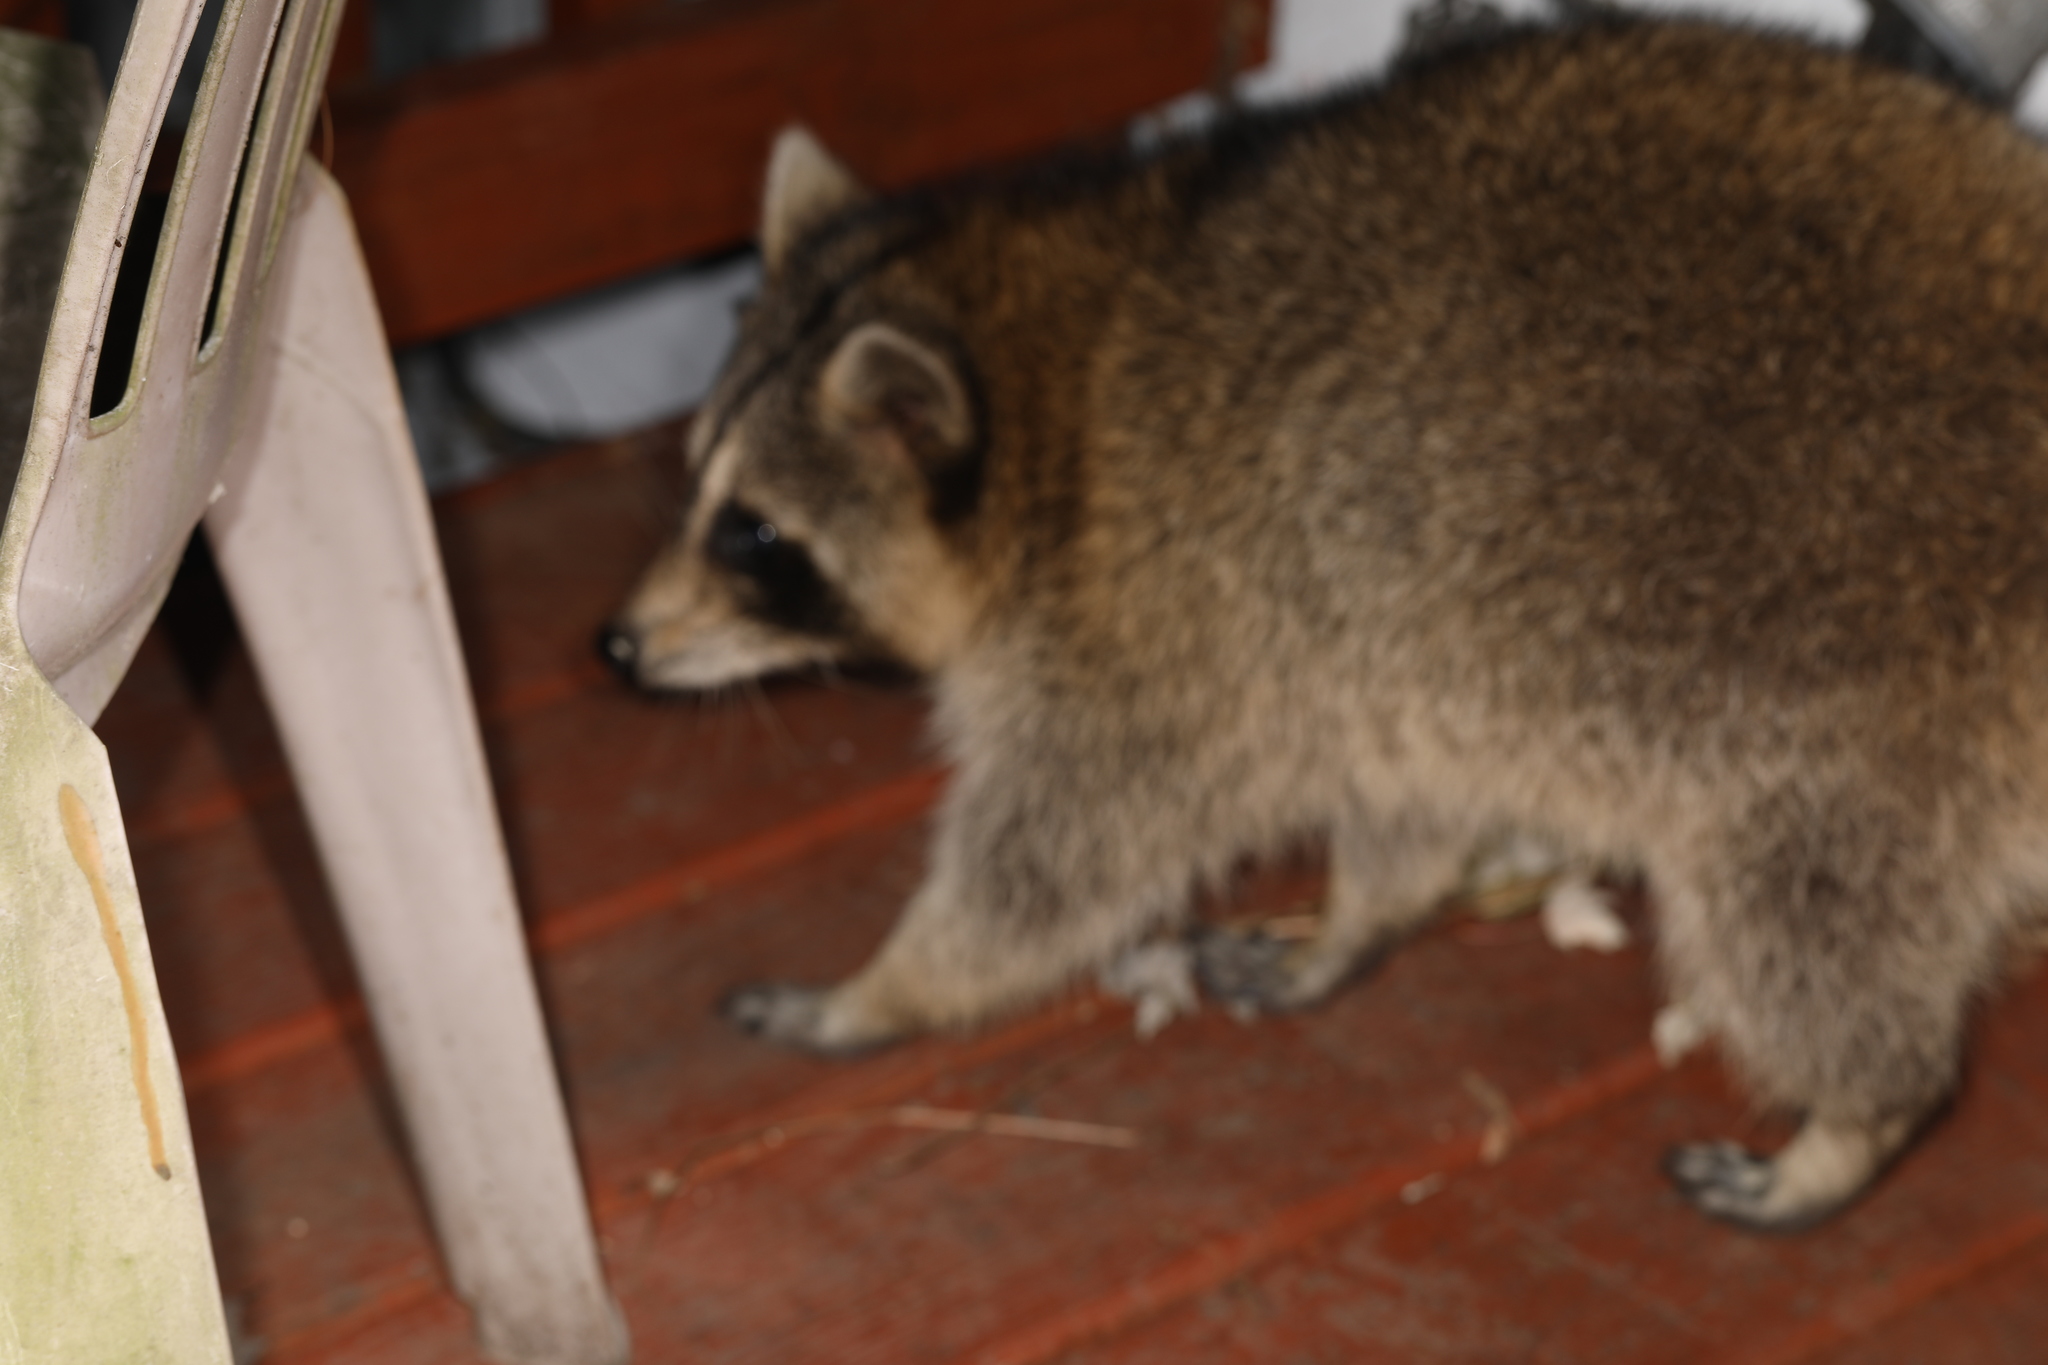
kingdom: Animalia
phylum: Chordata
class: Mammalia
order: Carnivora
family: Procyonidae
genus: Procyon
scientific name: Procyon lotor
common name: Raccoon
